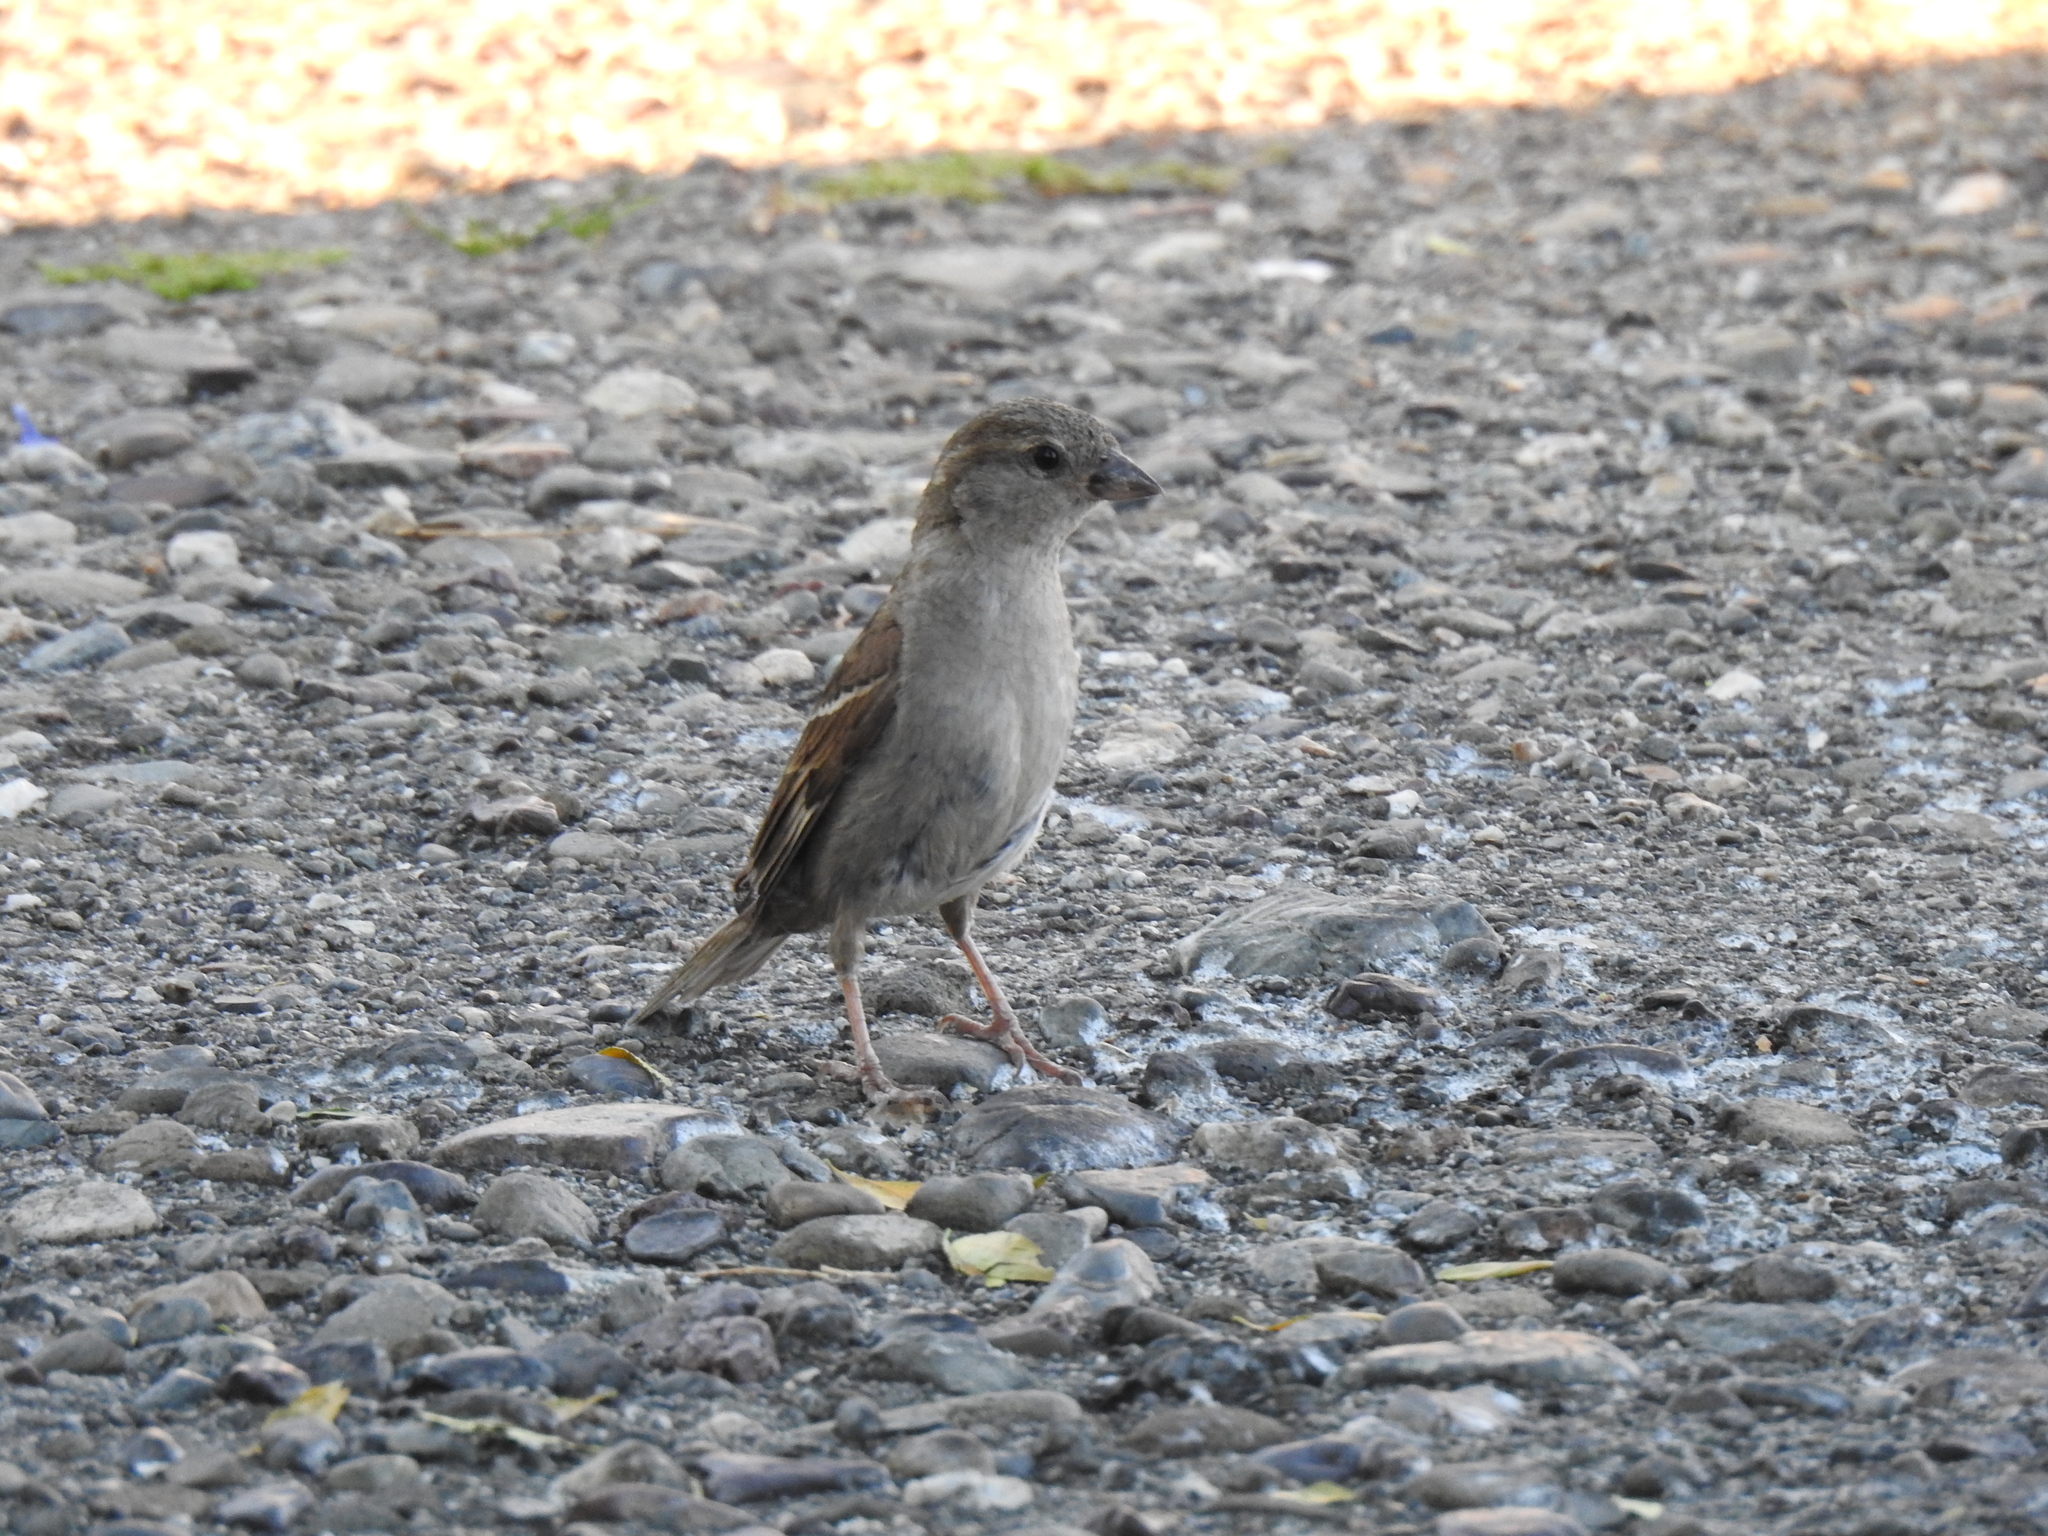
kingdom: Animalia
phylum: Chordata
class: Aves
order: Passeriformes
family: Passeridae
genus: Passer
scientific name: Passer domesticus
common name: House sparrow
